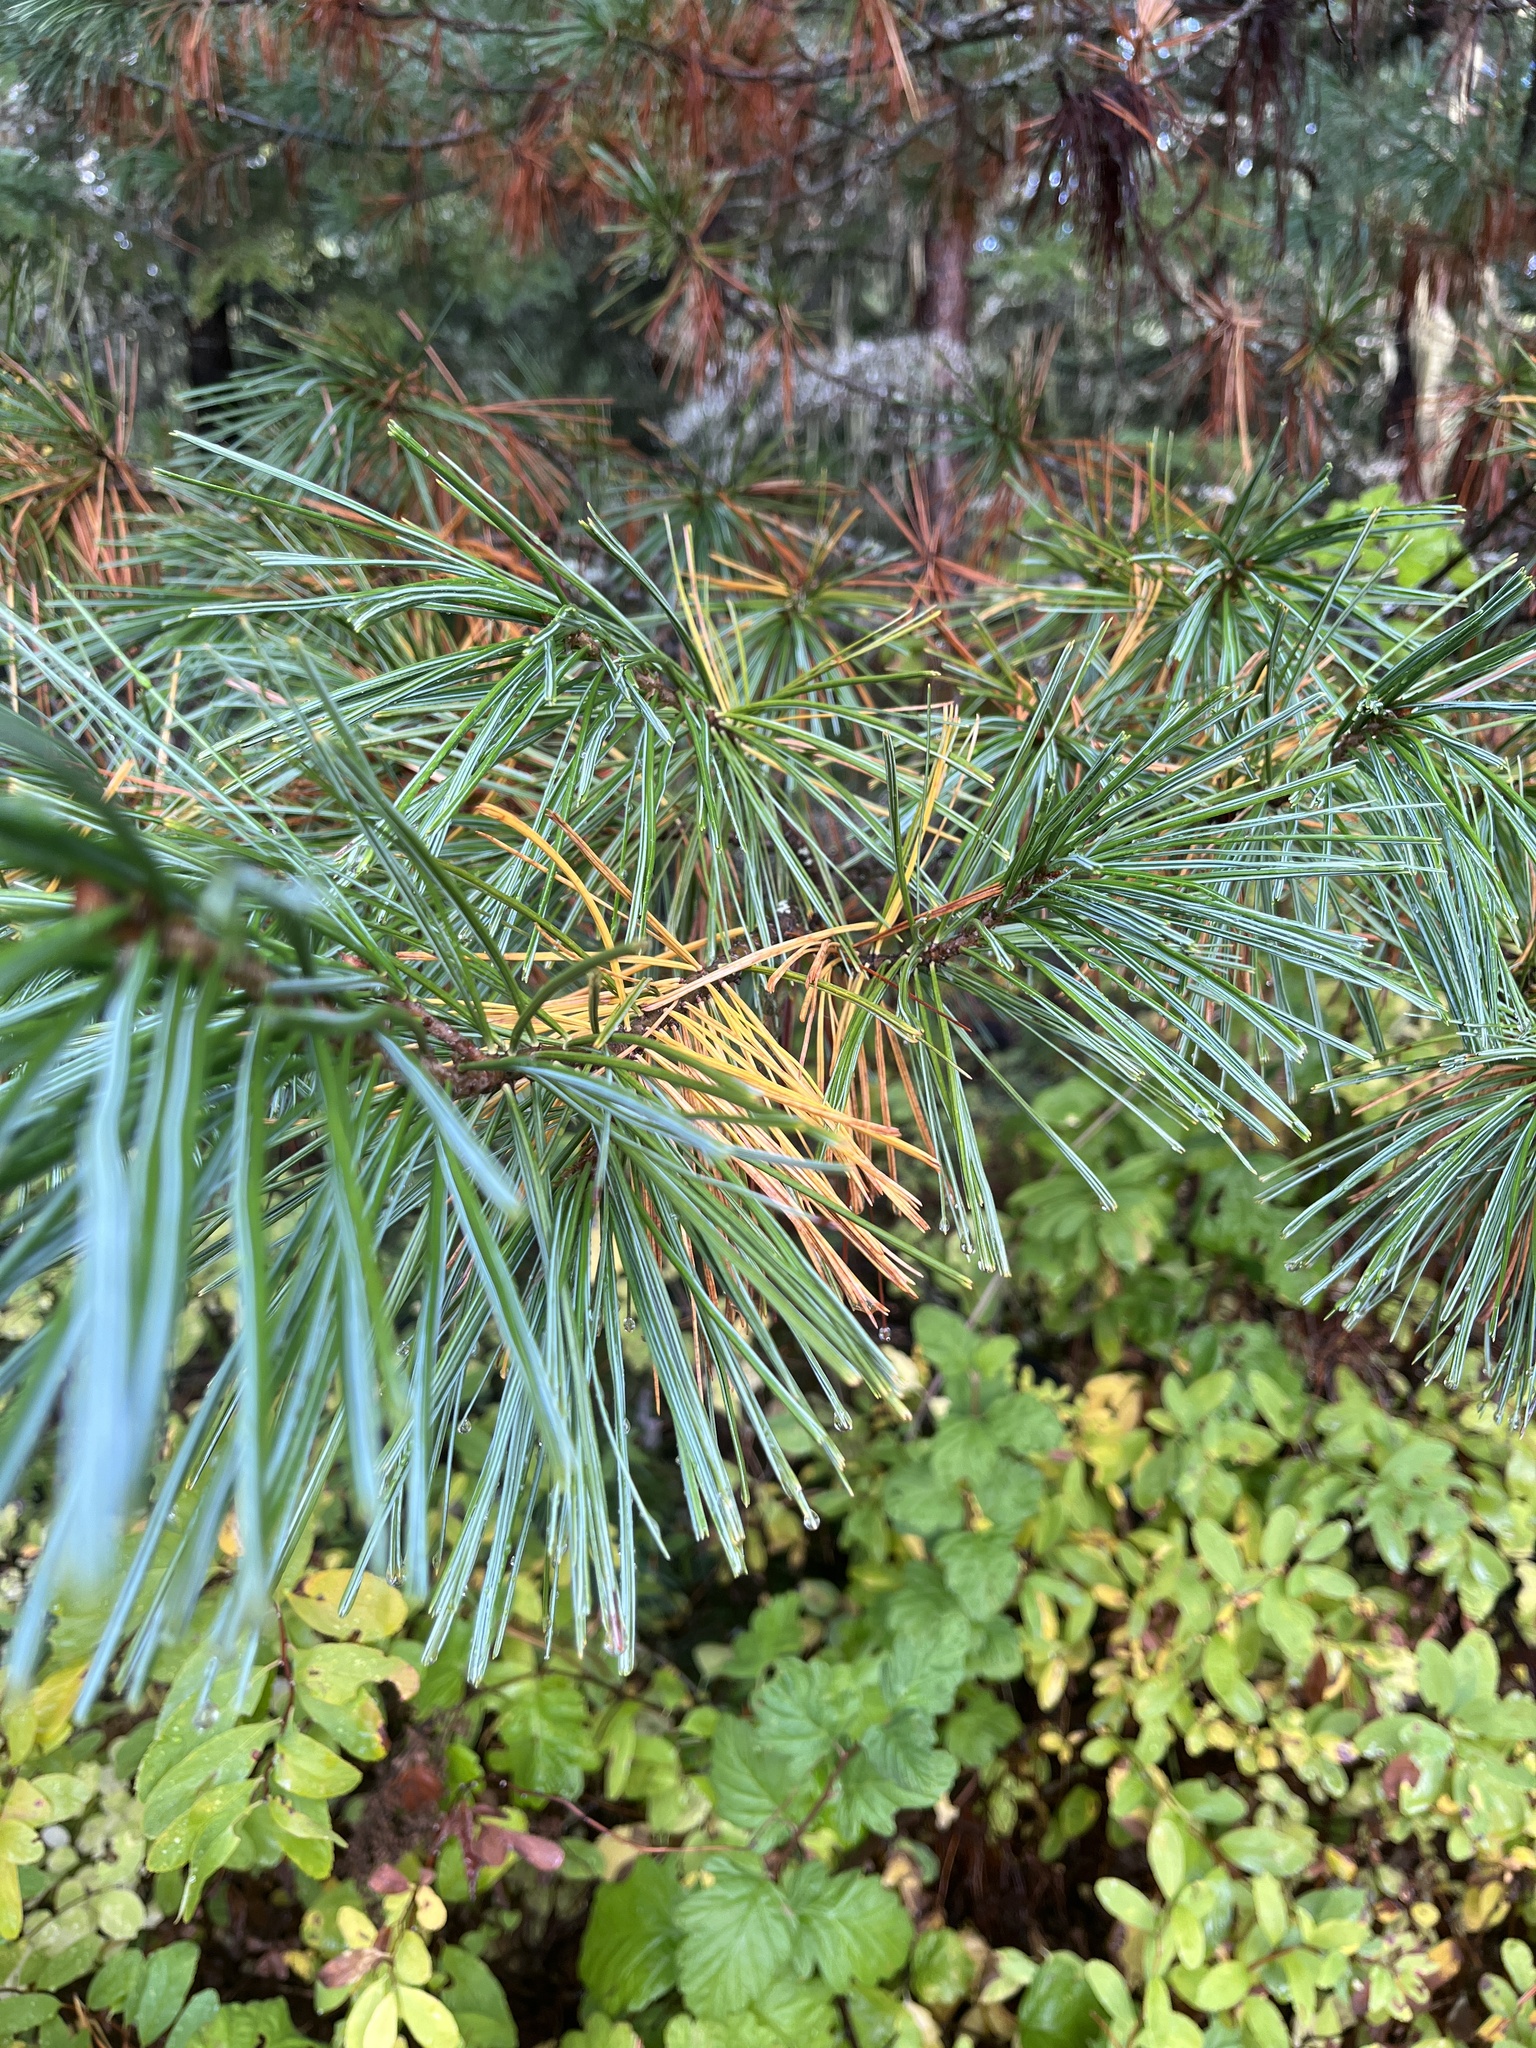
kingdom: Plantae
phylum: Tracheophyta
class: Pinopsida
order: Pinales
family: Pinaceae
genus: Pinus
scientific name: Pinus monticola
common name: Western white pine
